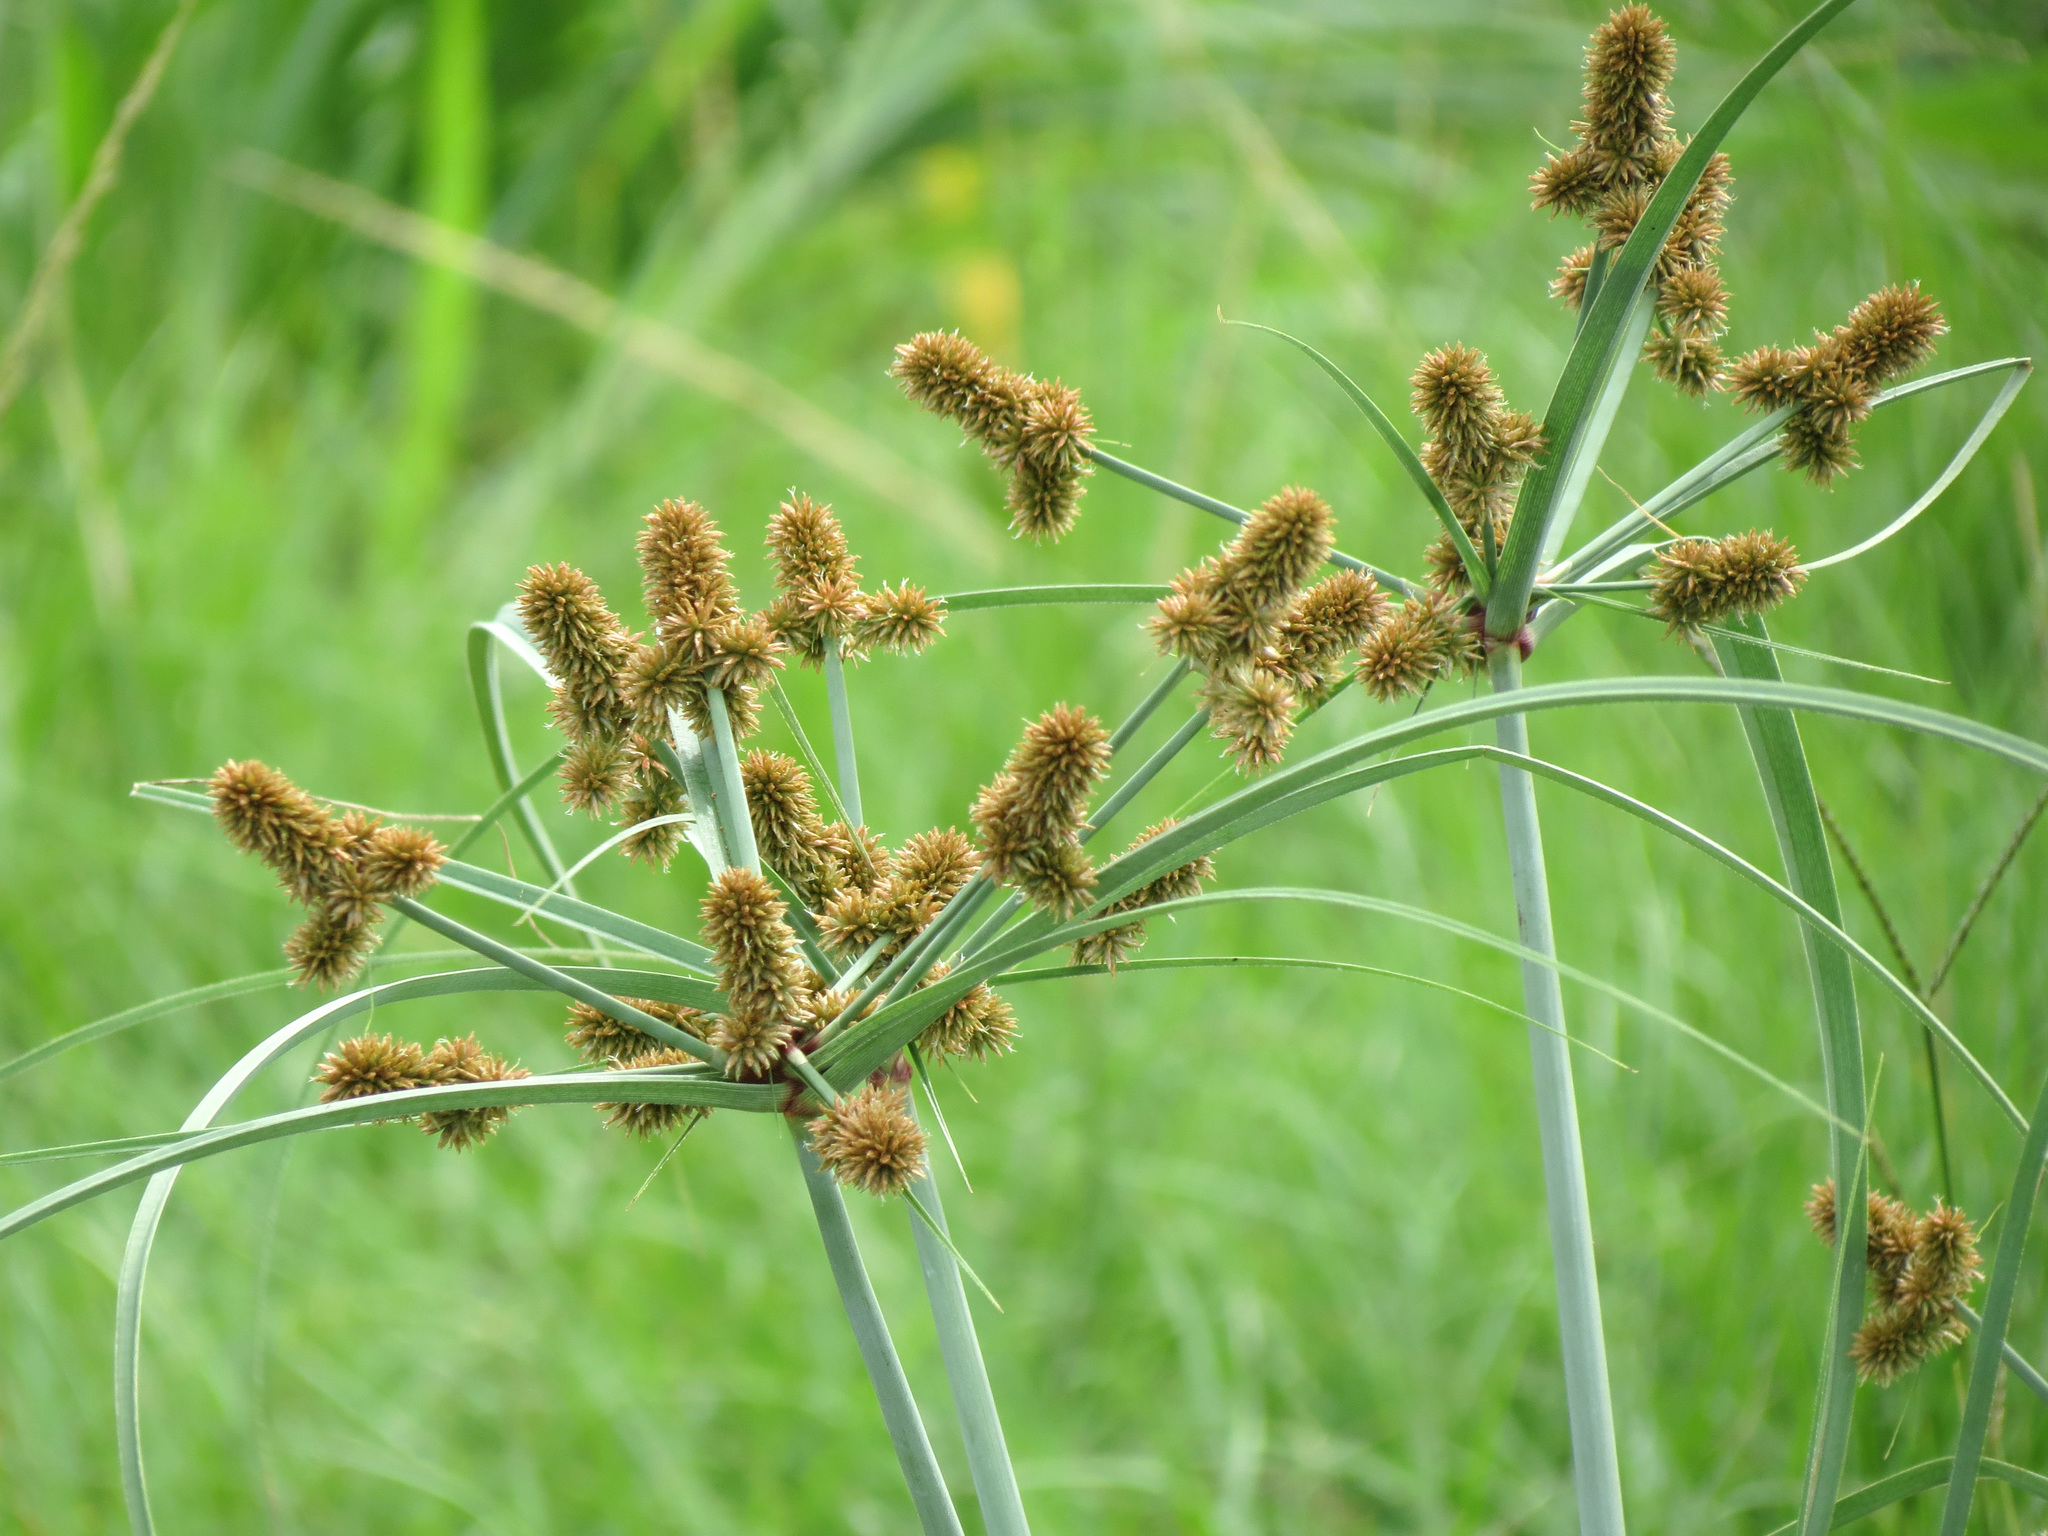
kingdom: Plantae
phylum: Tracheophyta
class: Liliopsida
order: Poales
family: Cyperaceae
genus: Cyperus
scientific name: Cyperus ligularis
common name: Swamp flat sedge
